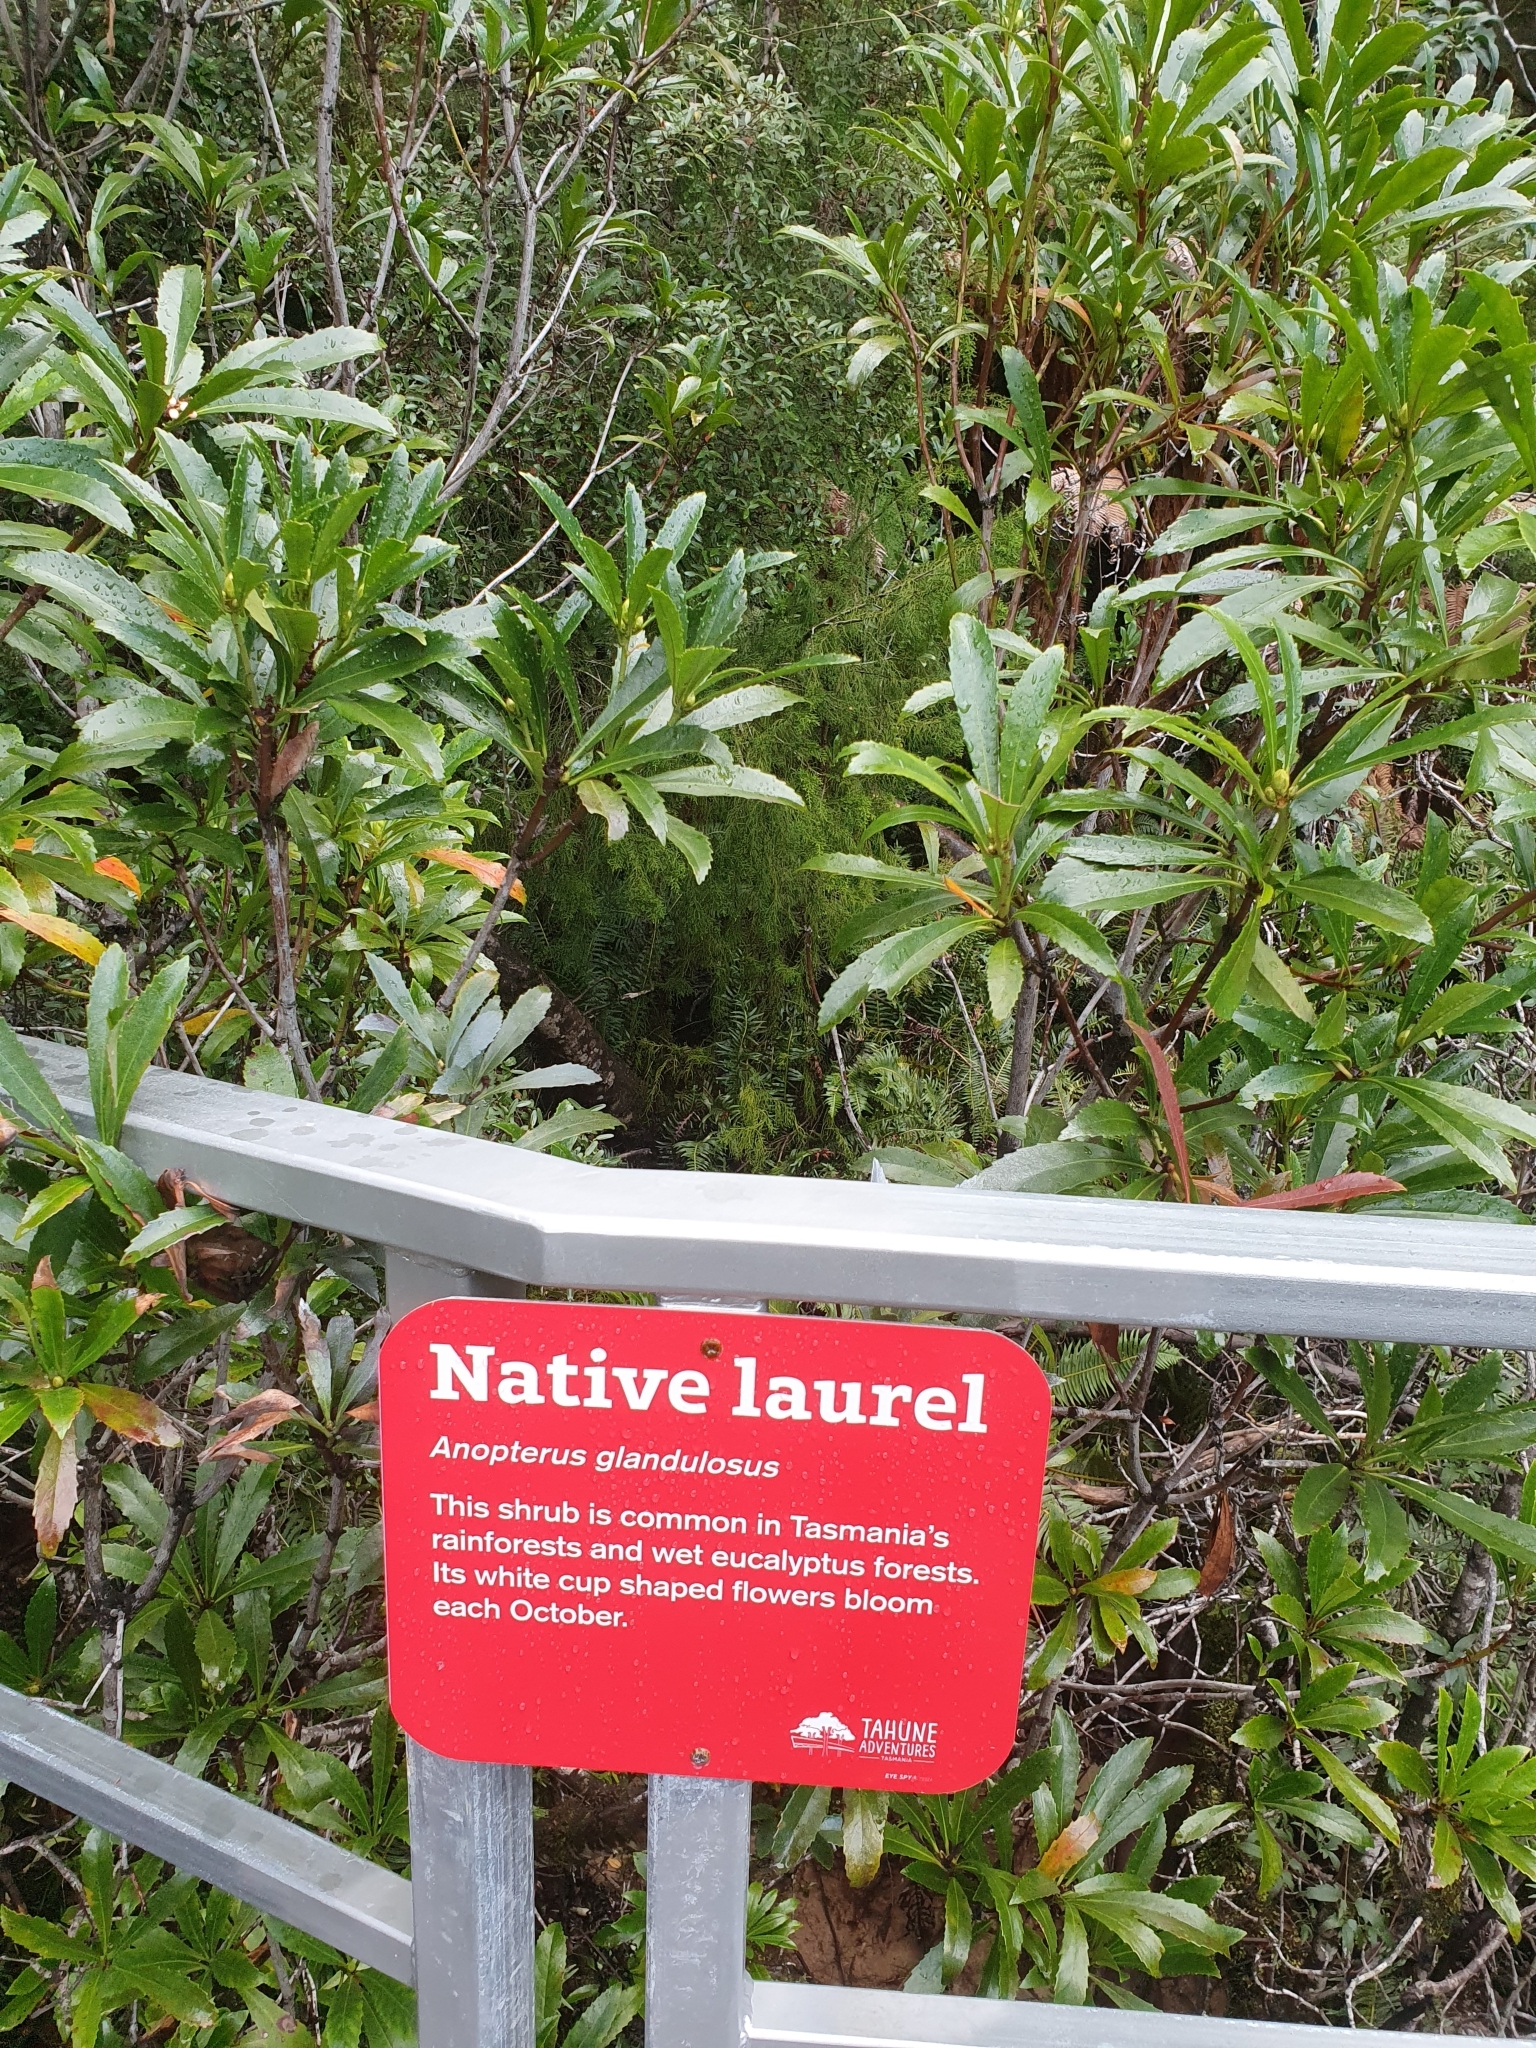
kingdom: Plantae
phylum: Tracheophyta
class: Magnoliopsida
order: Escalloniales
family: Escalloniaceae
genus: Anopterus
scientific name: Anopterus glandulosus
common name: Tasmanian-laurel
